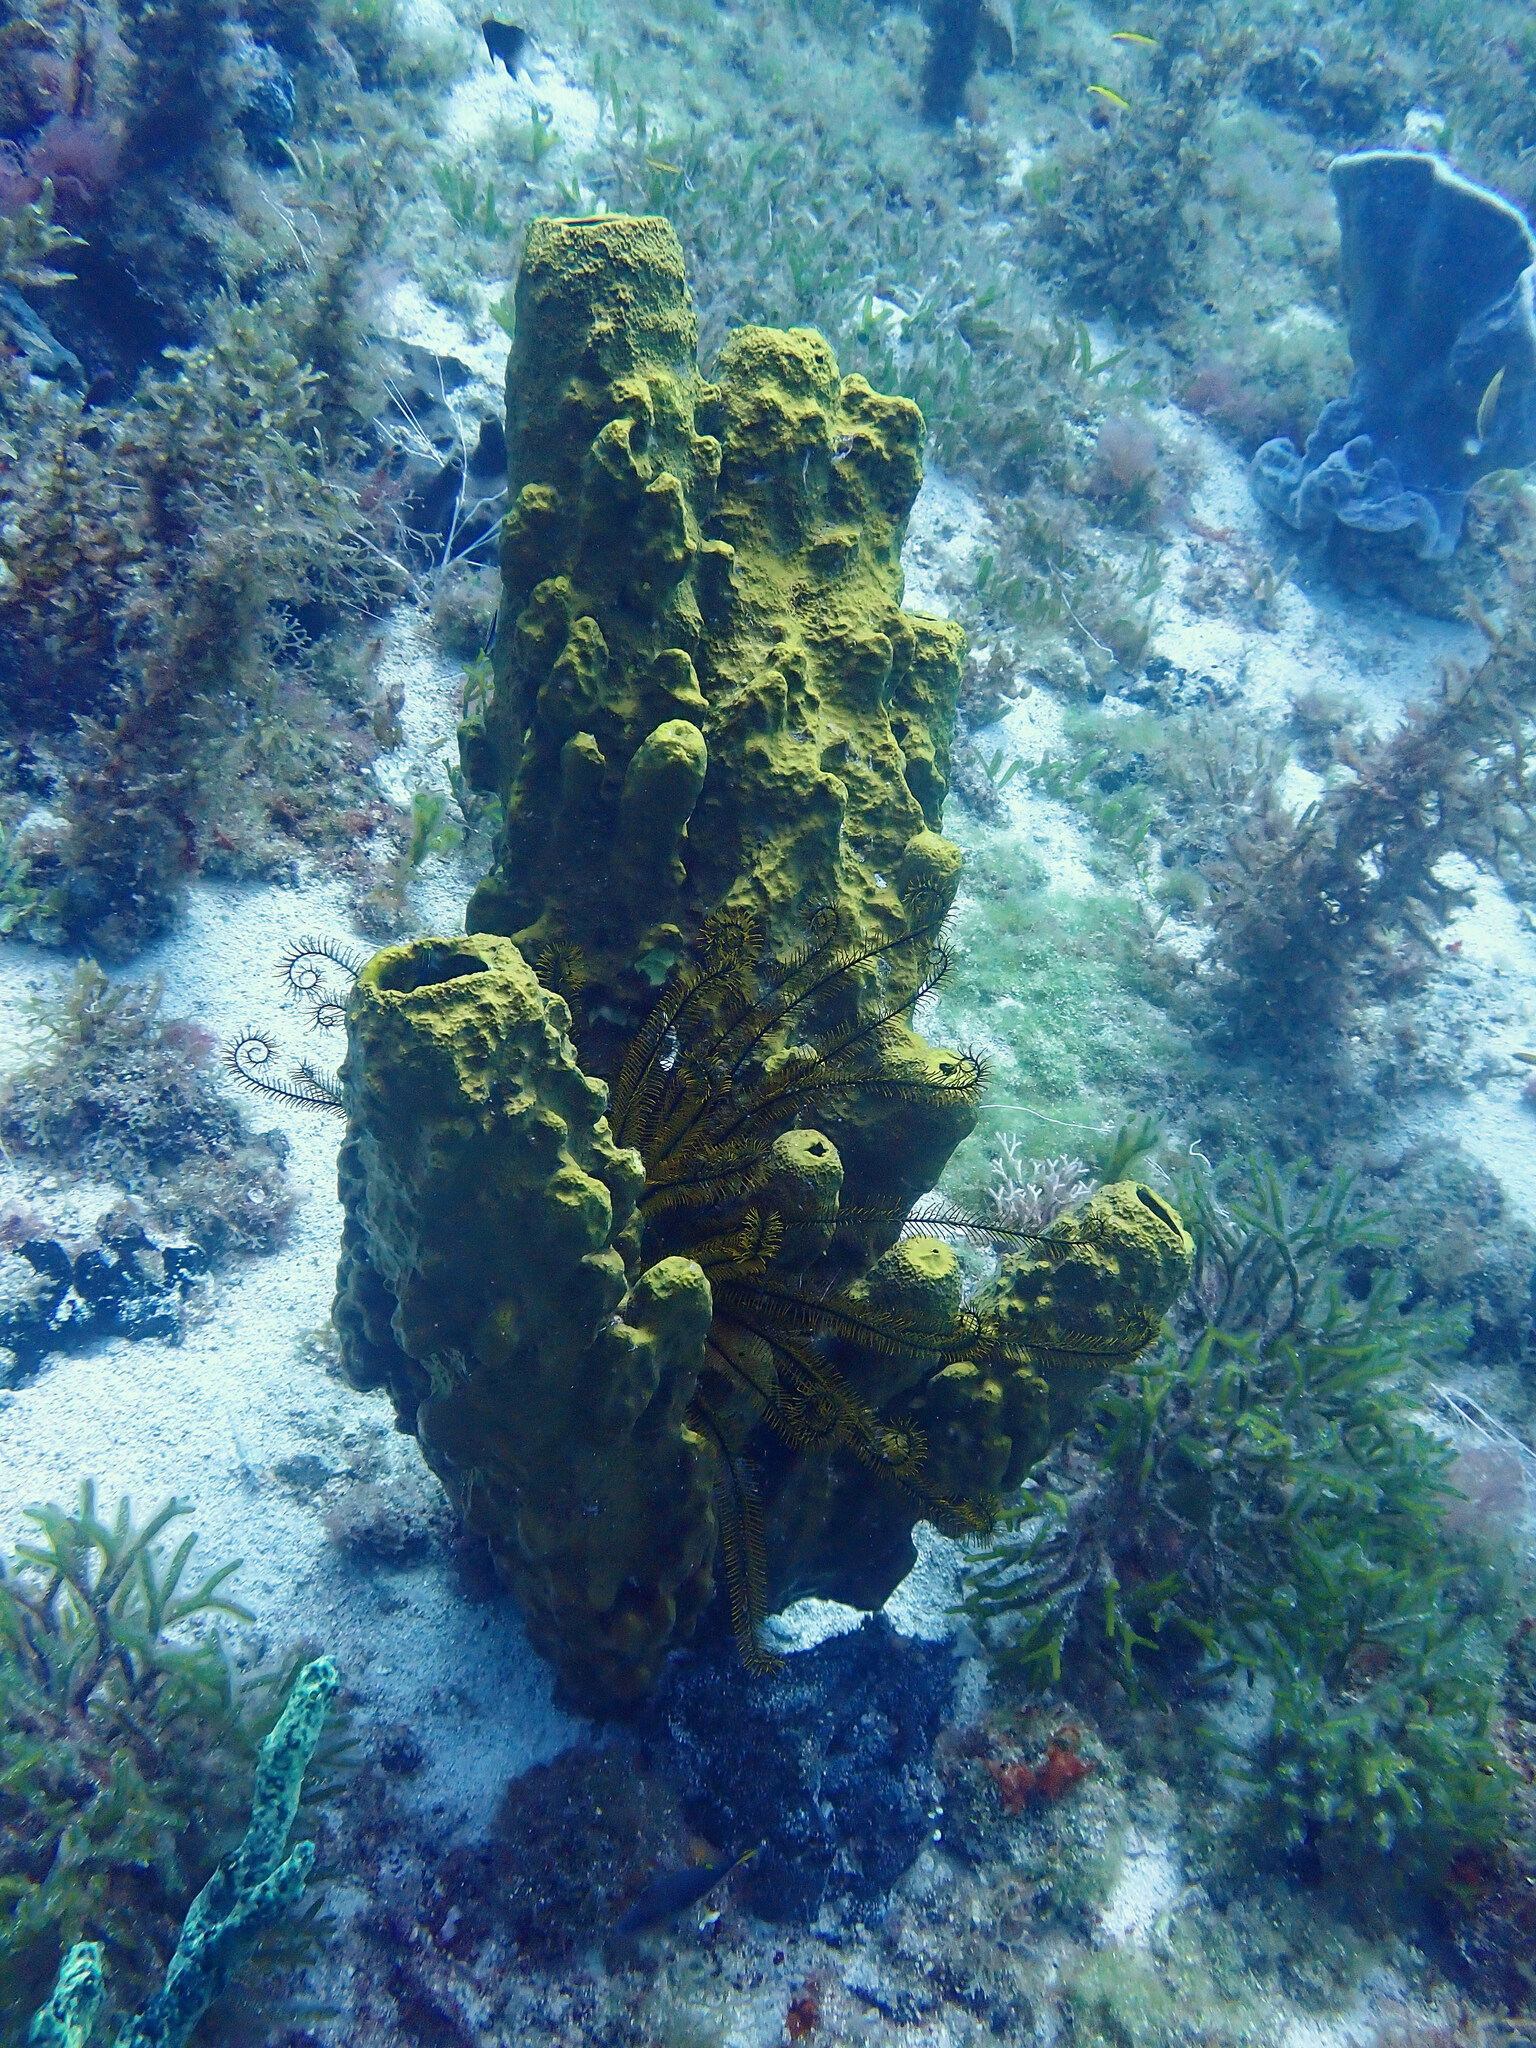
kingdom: Animalia
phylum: Porifera
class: Demospongiae
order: Verongiida
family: Aplysinidae
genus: Aplysina
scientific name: Aplysina fistularis
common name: Candle sponge
